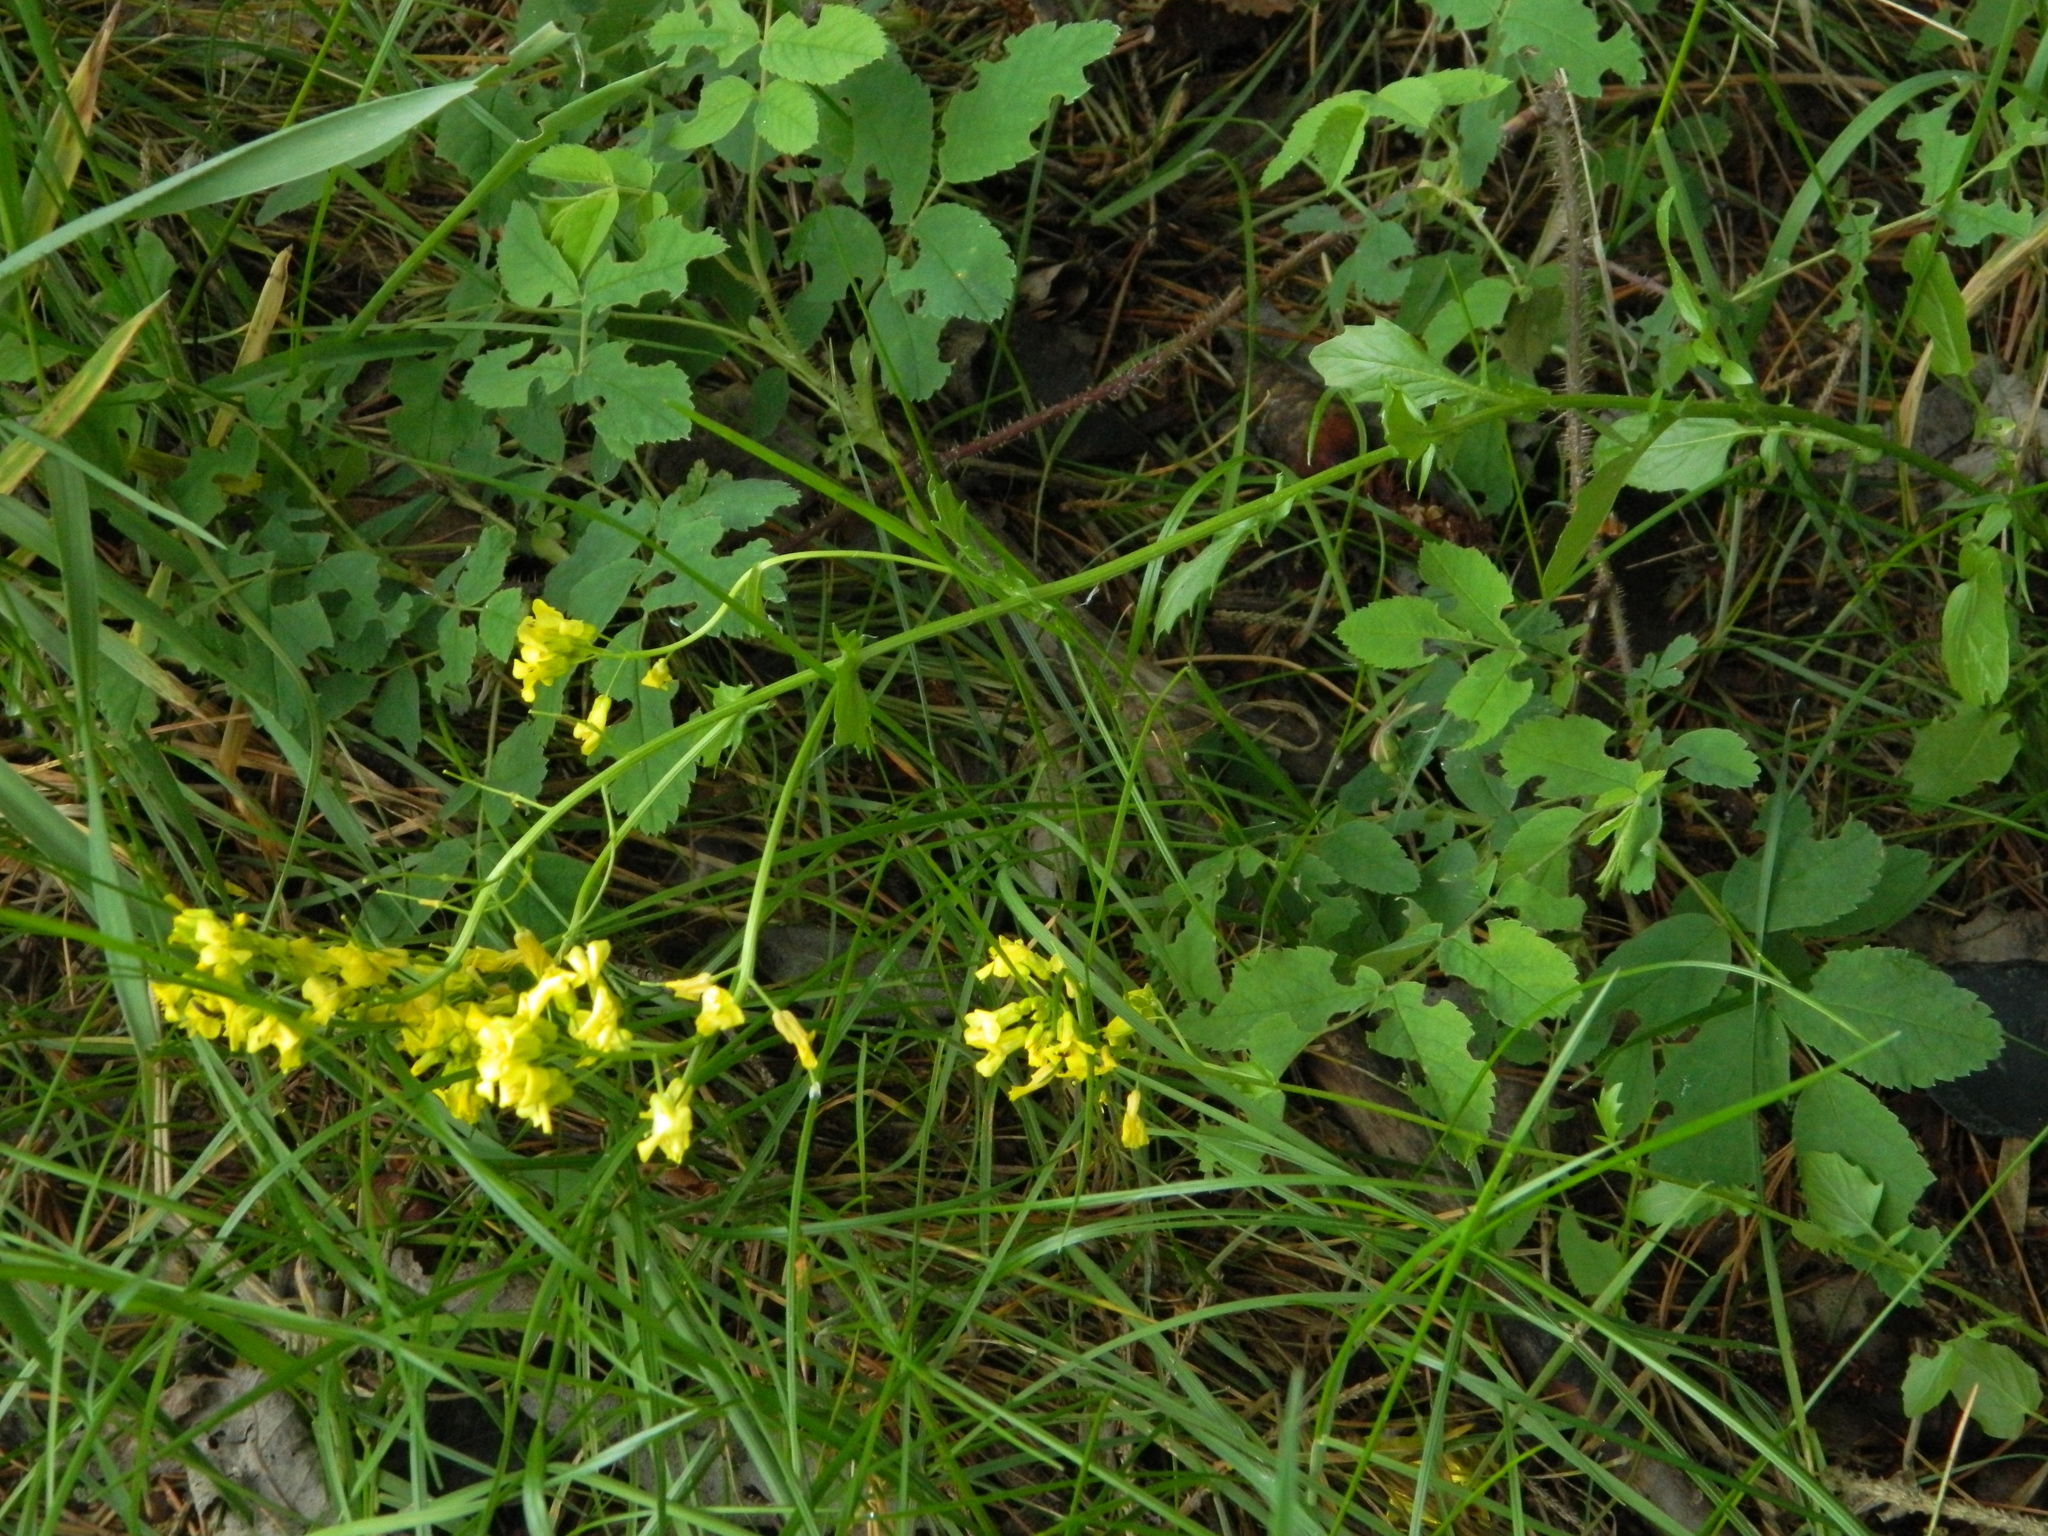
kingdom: Plantae
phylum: Tracheophyta
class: Magnoliopsida
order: Brassicales
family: Brassicaceae
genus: Barbarea
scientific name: Barbarea vulgaris
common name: Cressy-greens
